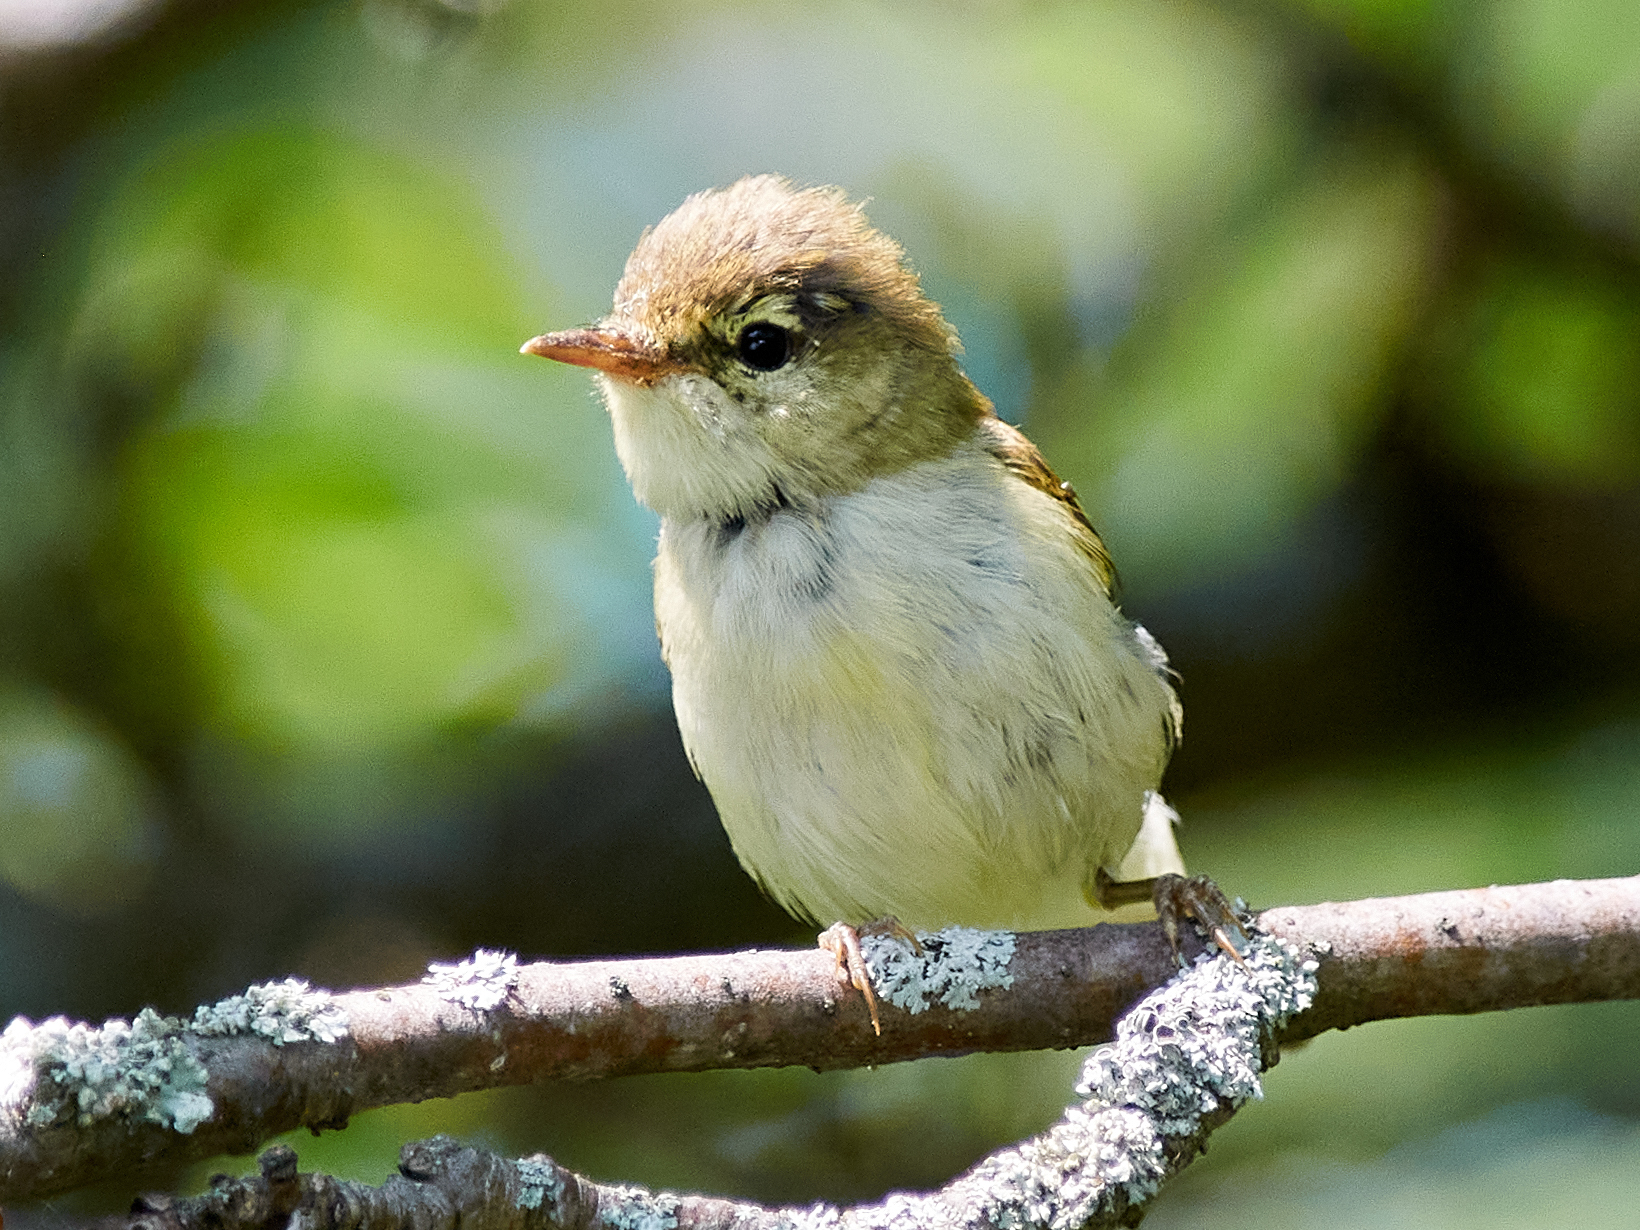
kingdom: Animalia
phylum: Chordata
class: Aves
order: Passeriformes
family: Phylloscopidae
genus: Phylloscopus
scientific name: Phylloscopus trochilus
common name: Willow warbler
